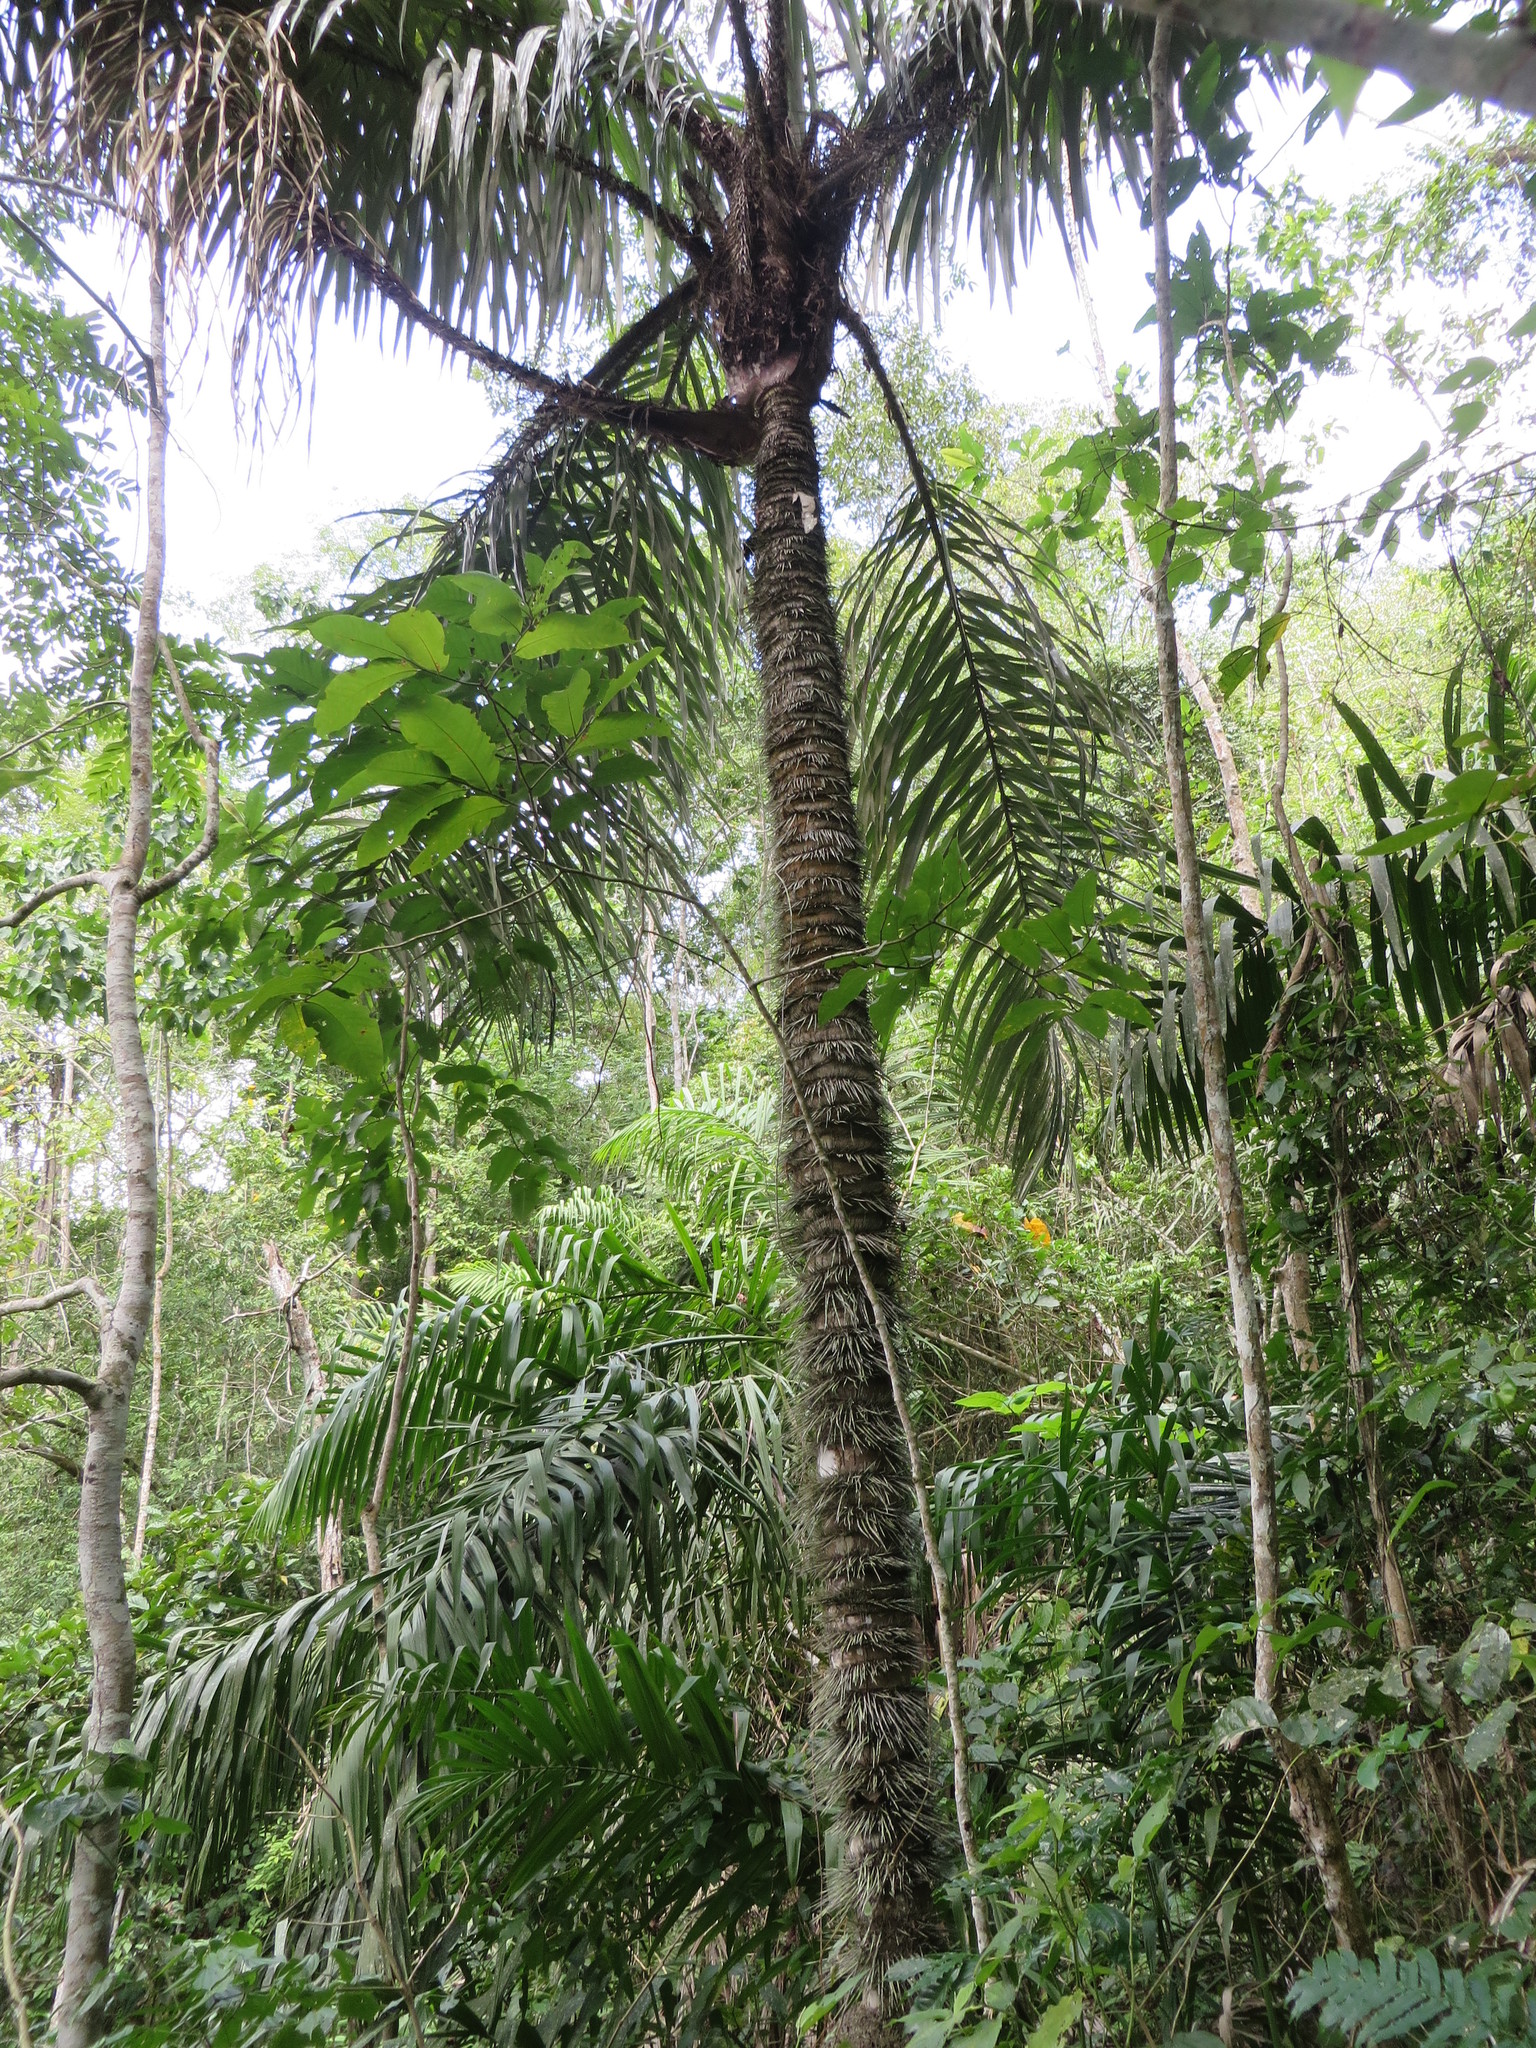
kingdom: Plantae
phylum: Tracheophyta
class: Liliopsida
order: Arecales
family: Arecaceae
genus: Astrocaryum
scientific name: Astrocaryum standleyanum
